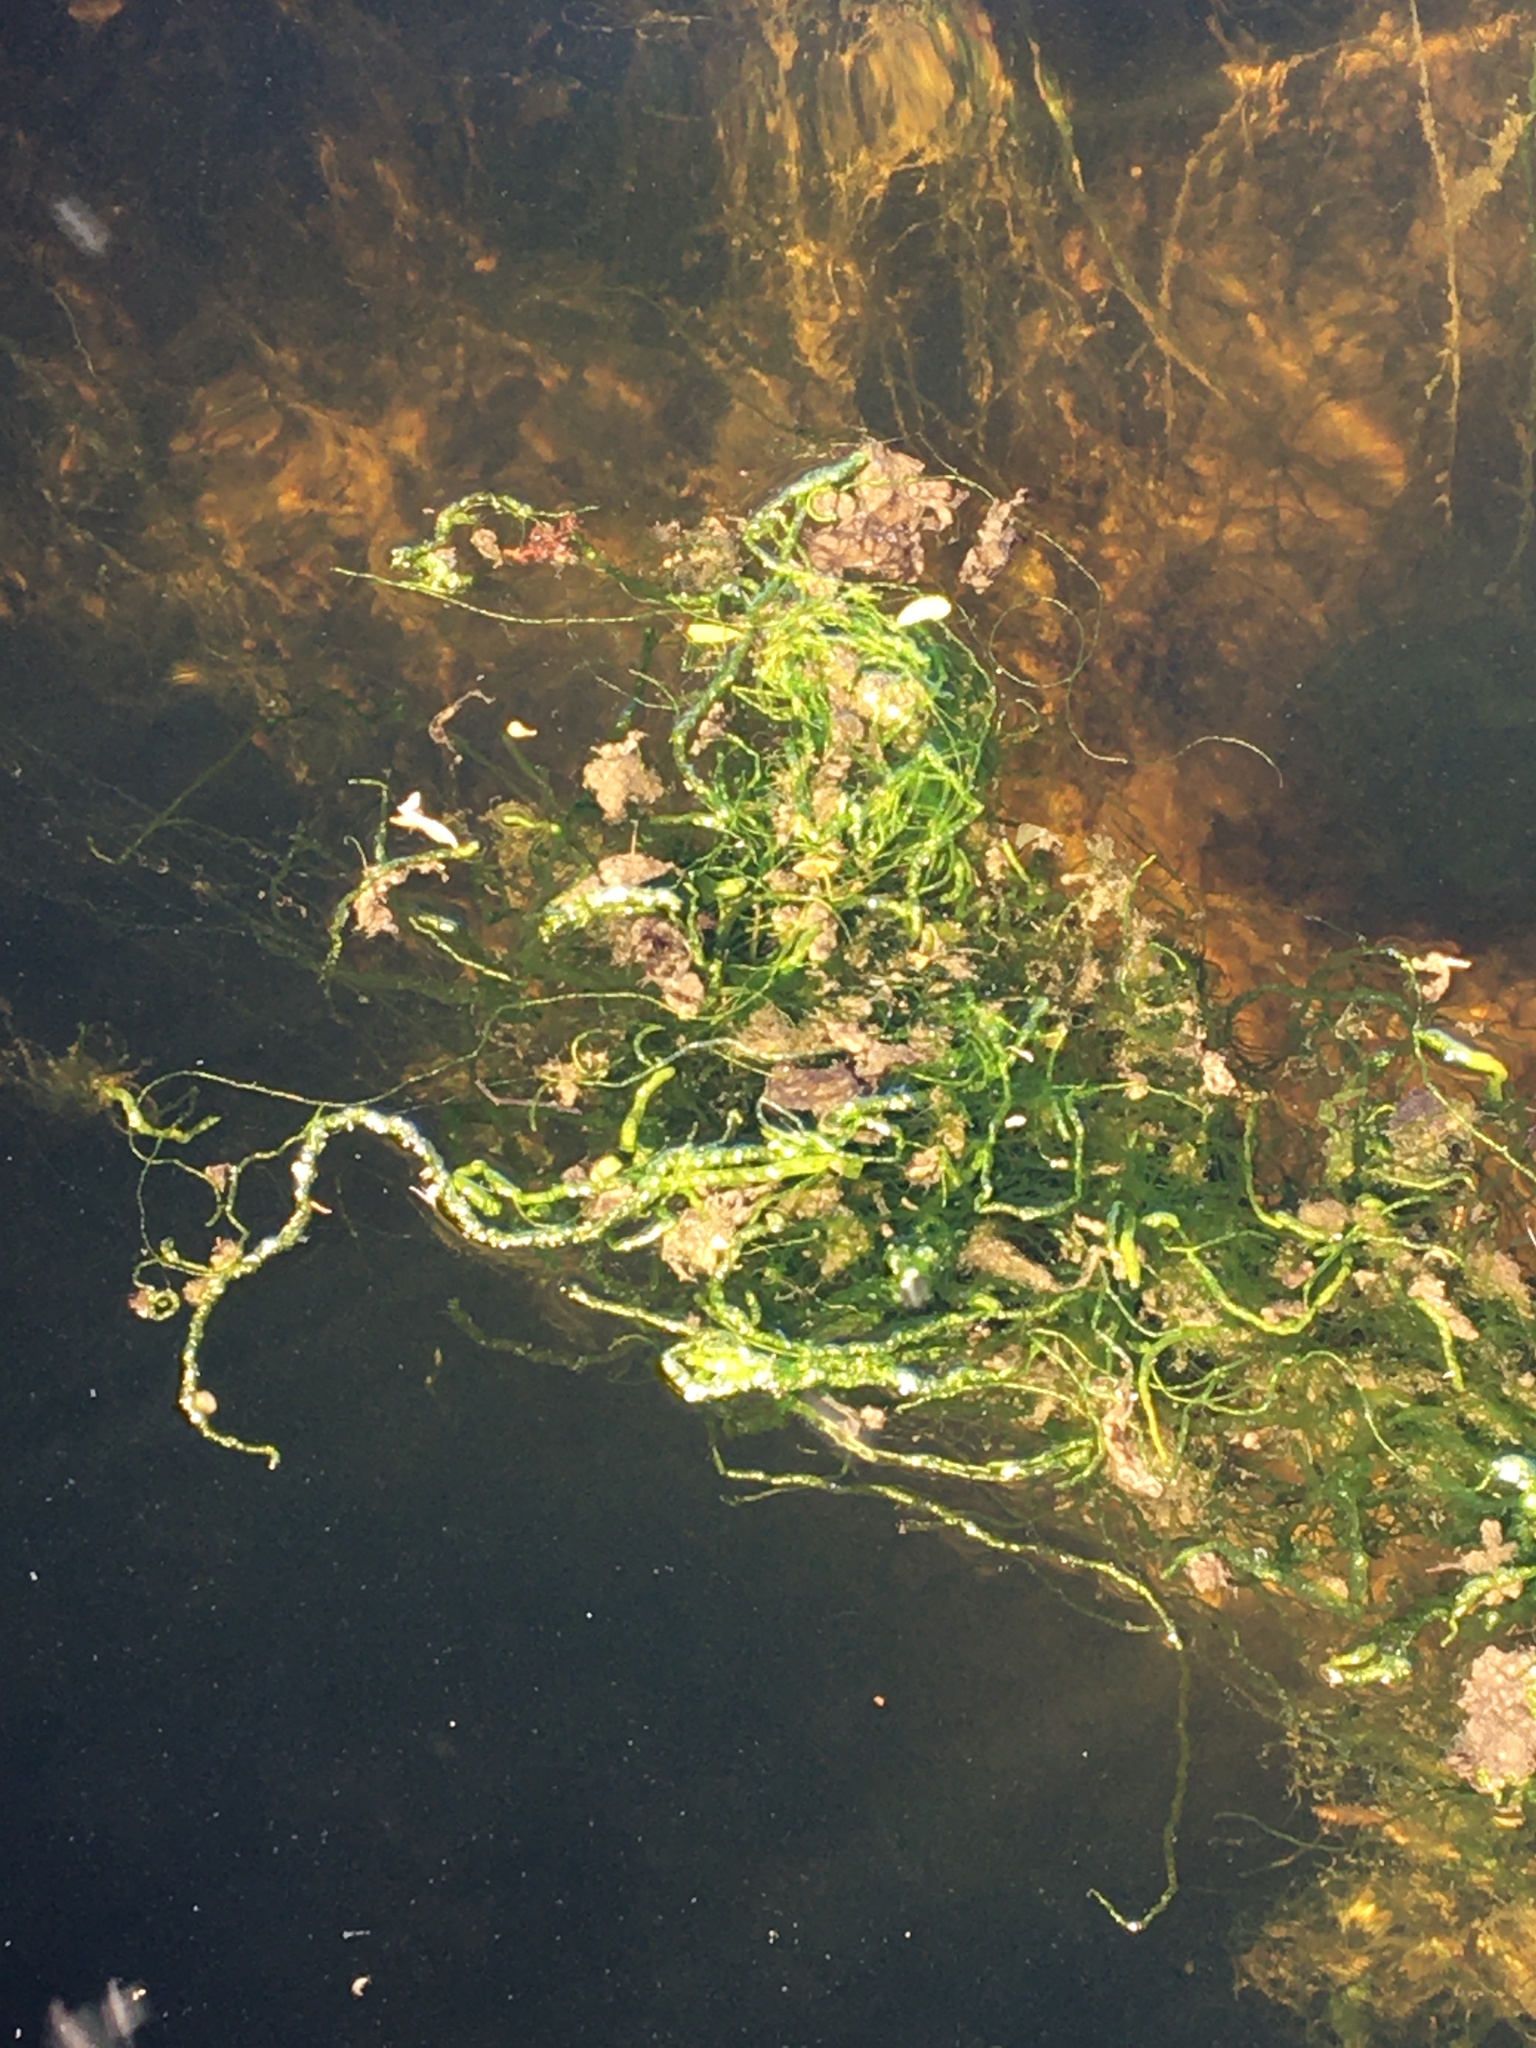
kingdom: Plantae
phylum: Chlorophyta
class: Ulvophyceae
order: Ulvales
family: Ulvaceae
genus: Ulva
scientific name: Ulva intestinalis
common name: Gut weed
